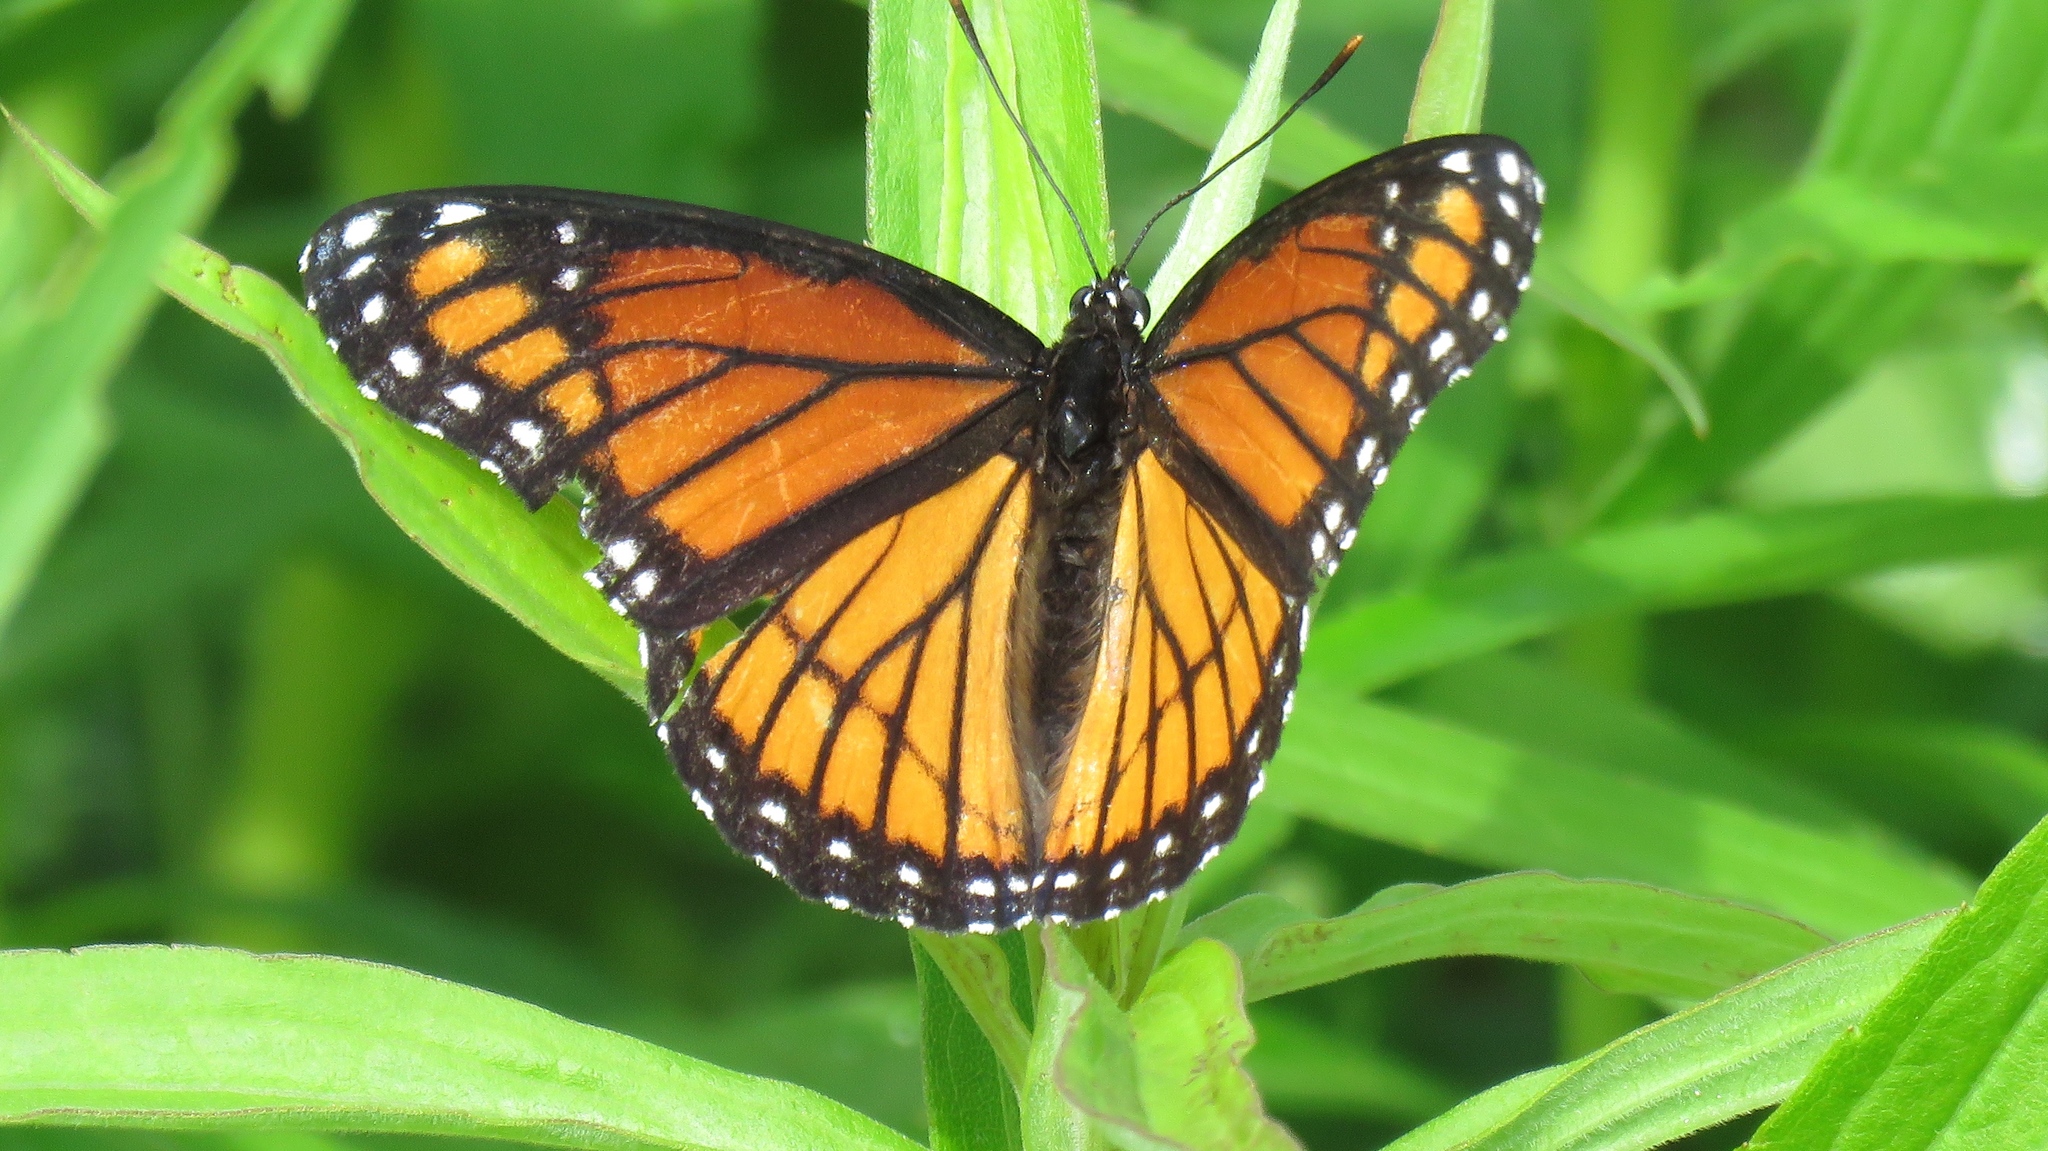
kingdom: Animalia
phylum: Arthropoda
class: Insecta
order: Lepidoptera
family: Nymphalidae
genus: Limenitis
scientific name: Limenitis archippus
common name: Viceroy
